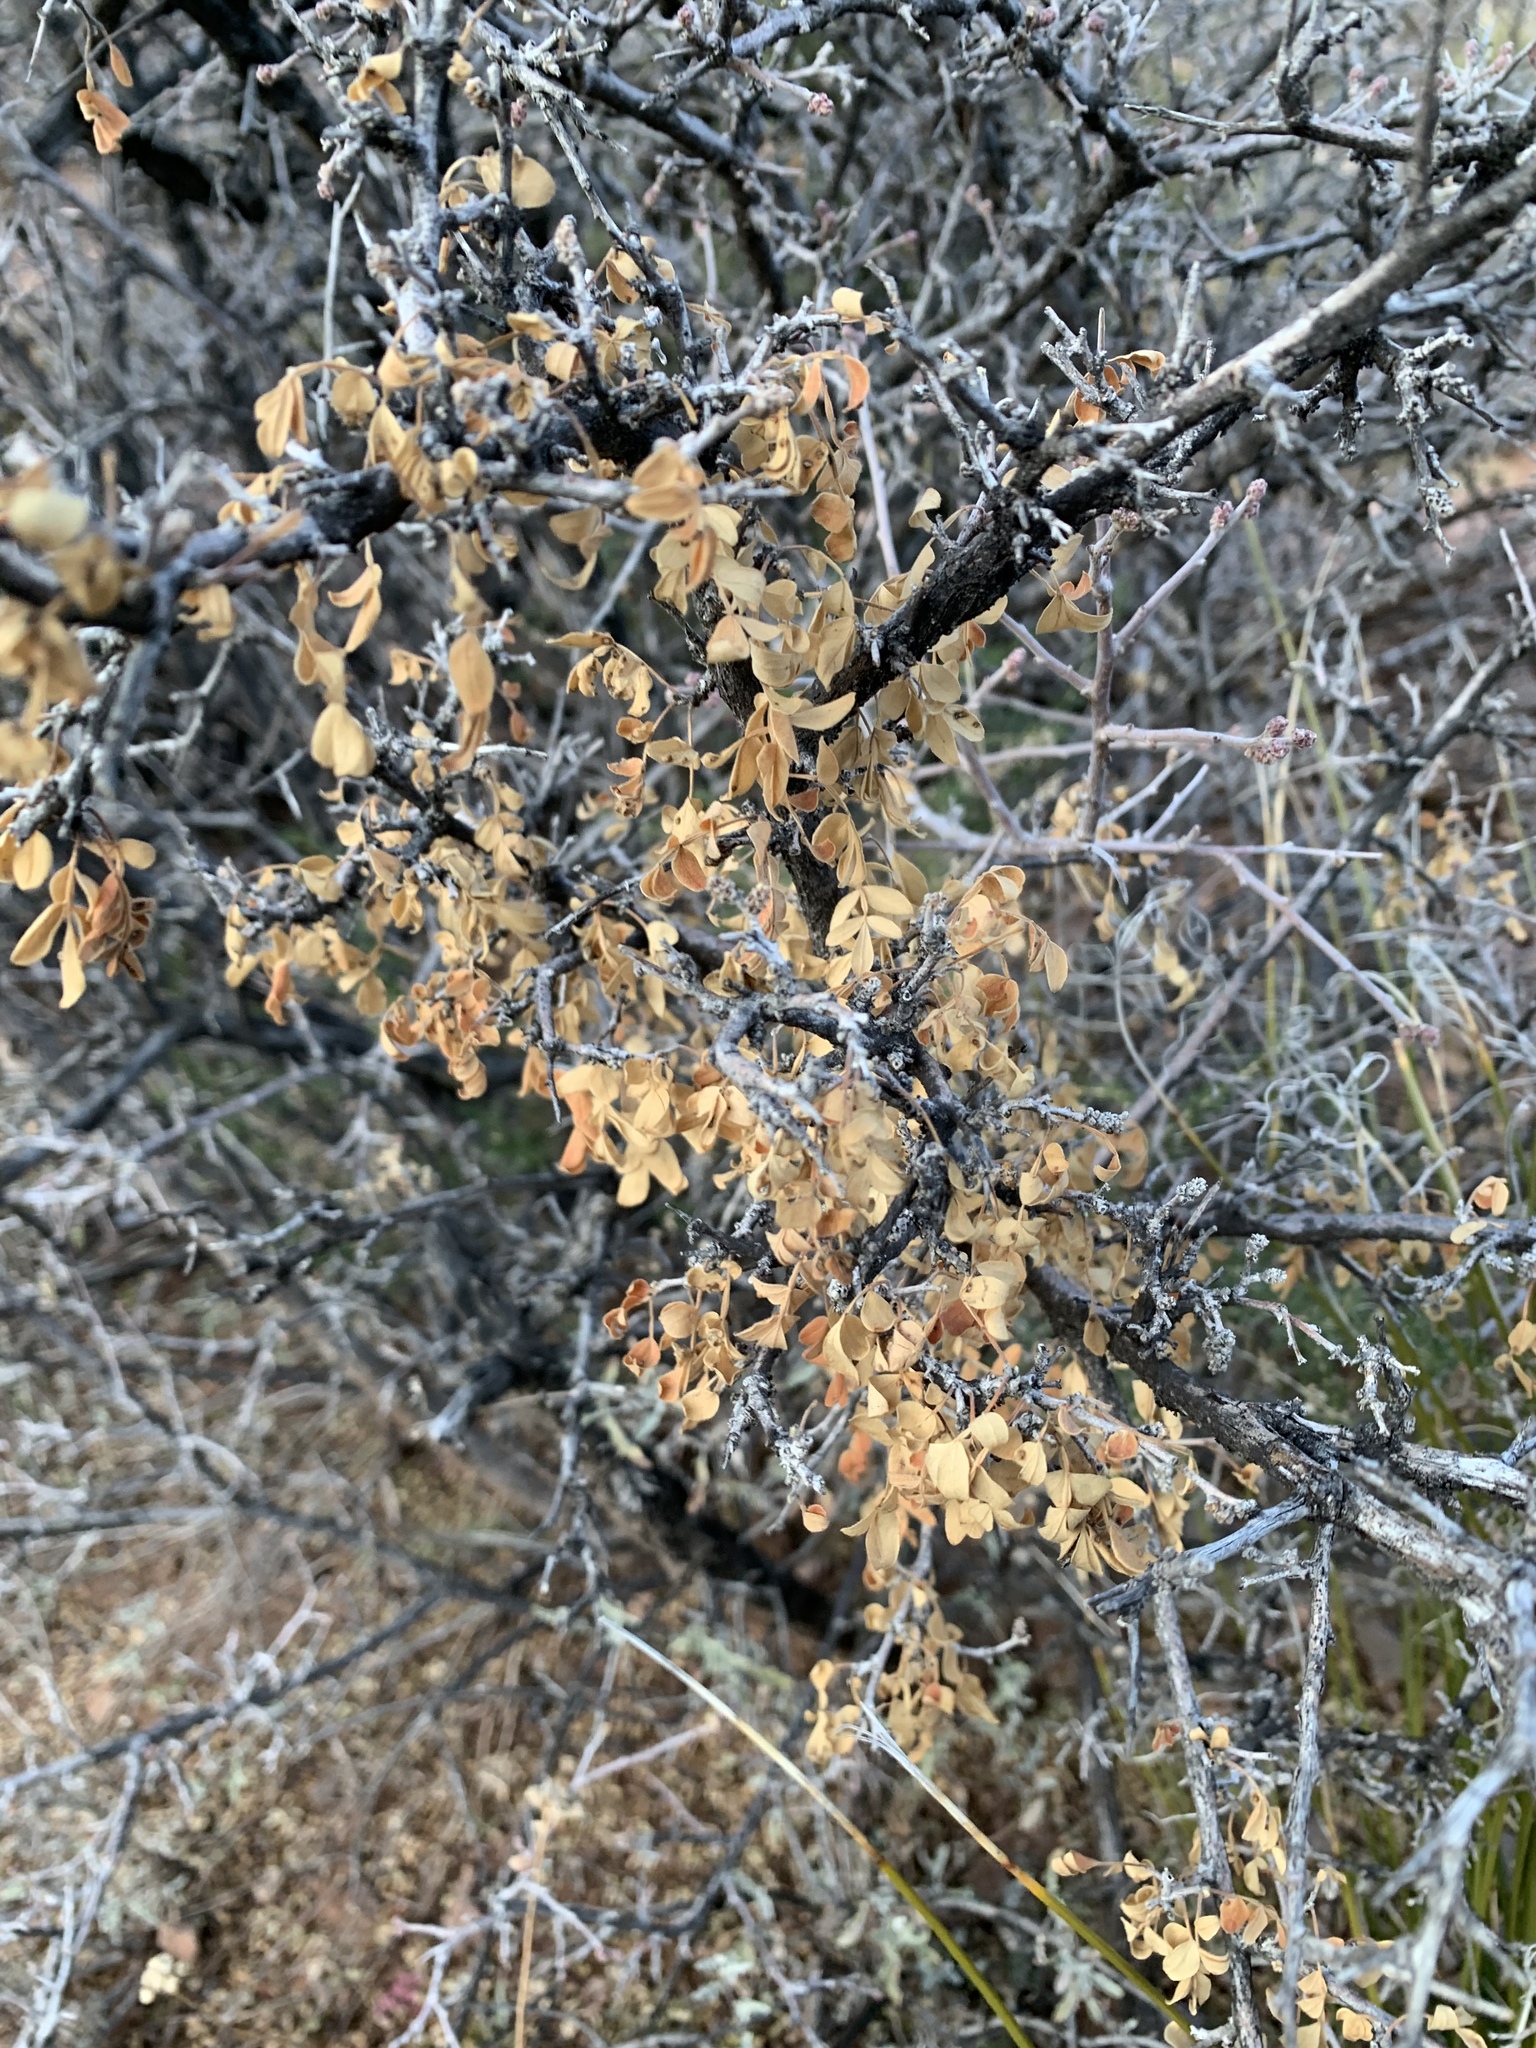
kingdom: Plantae
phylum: Tracheophyta
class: Magnoliopsida
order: Sapindales
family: Anacardiaceae
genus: Rhus
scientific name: Rhus microphylla
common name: Desert sumac
